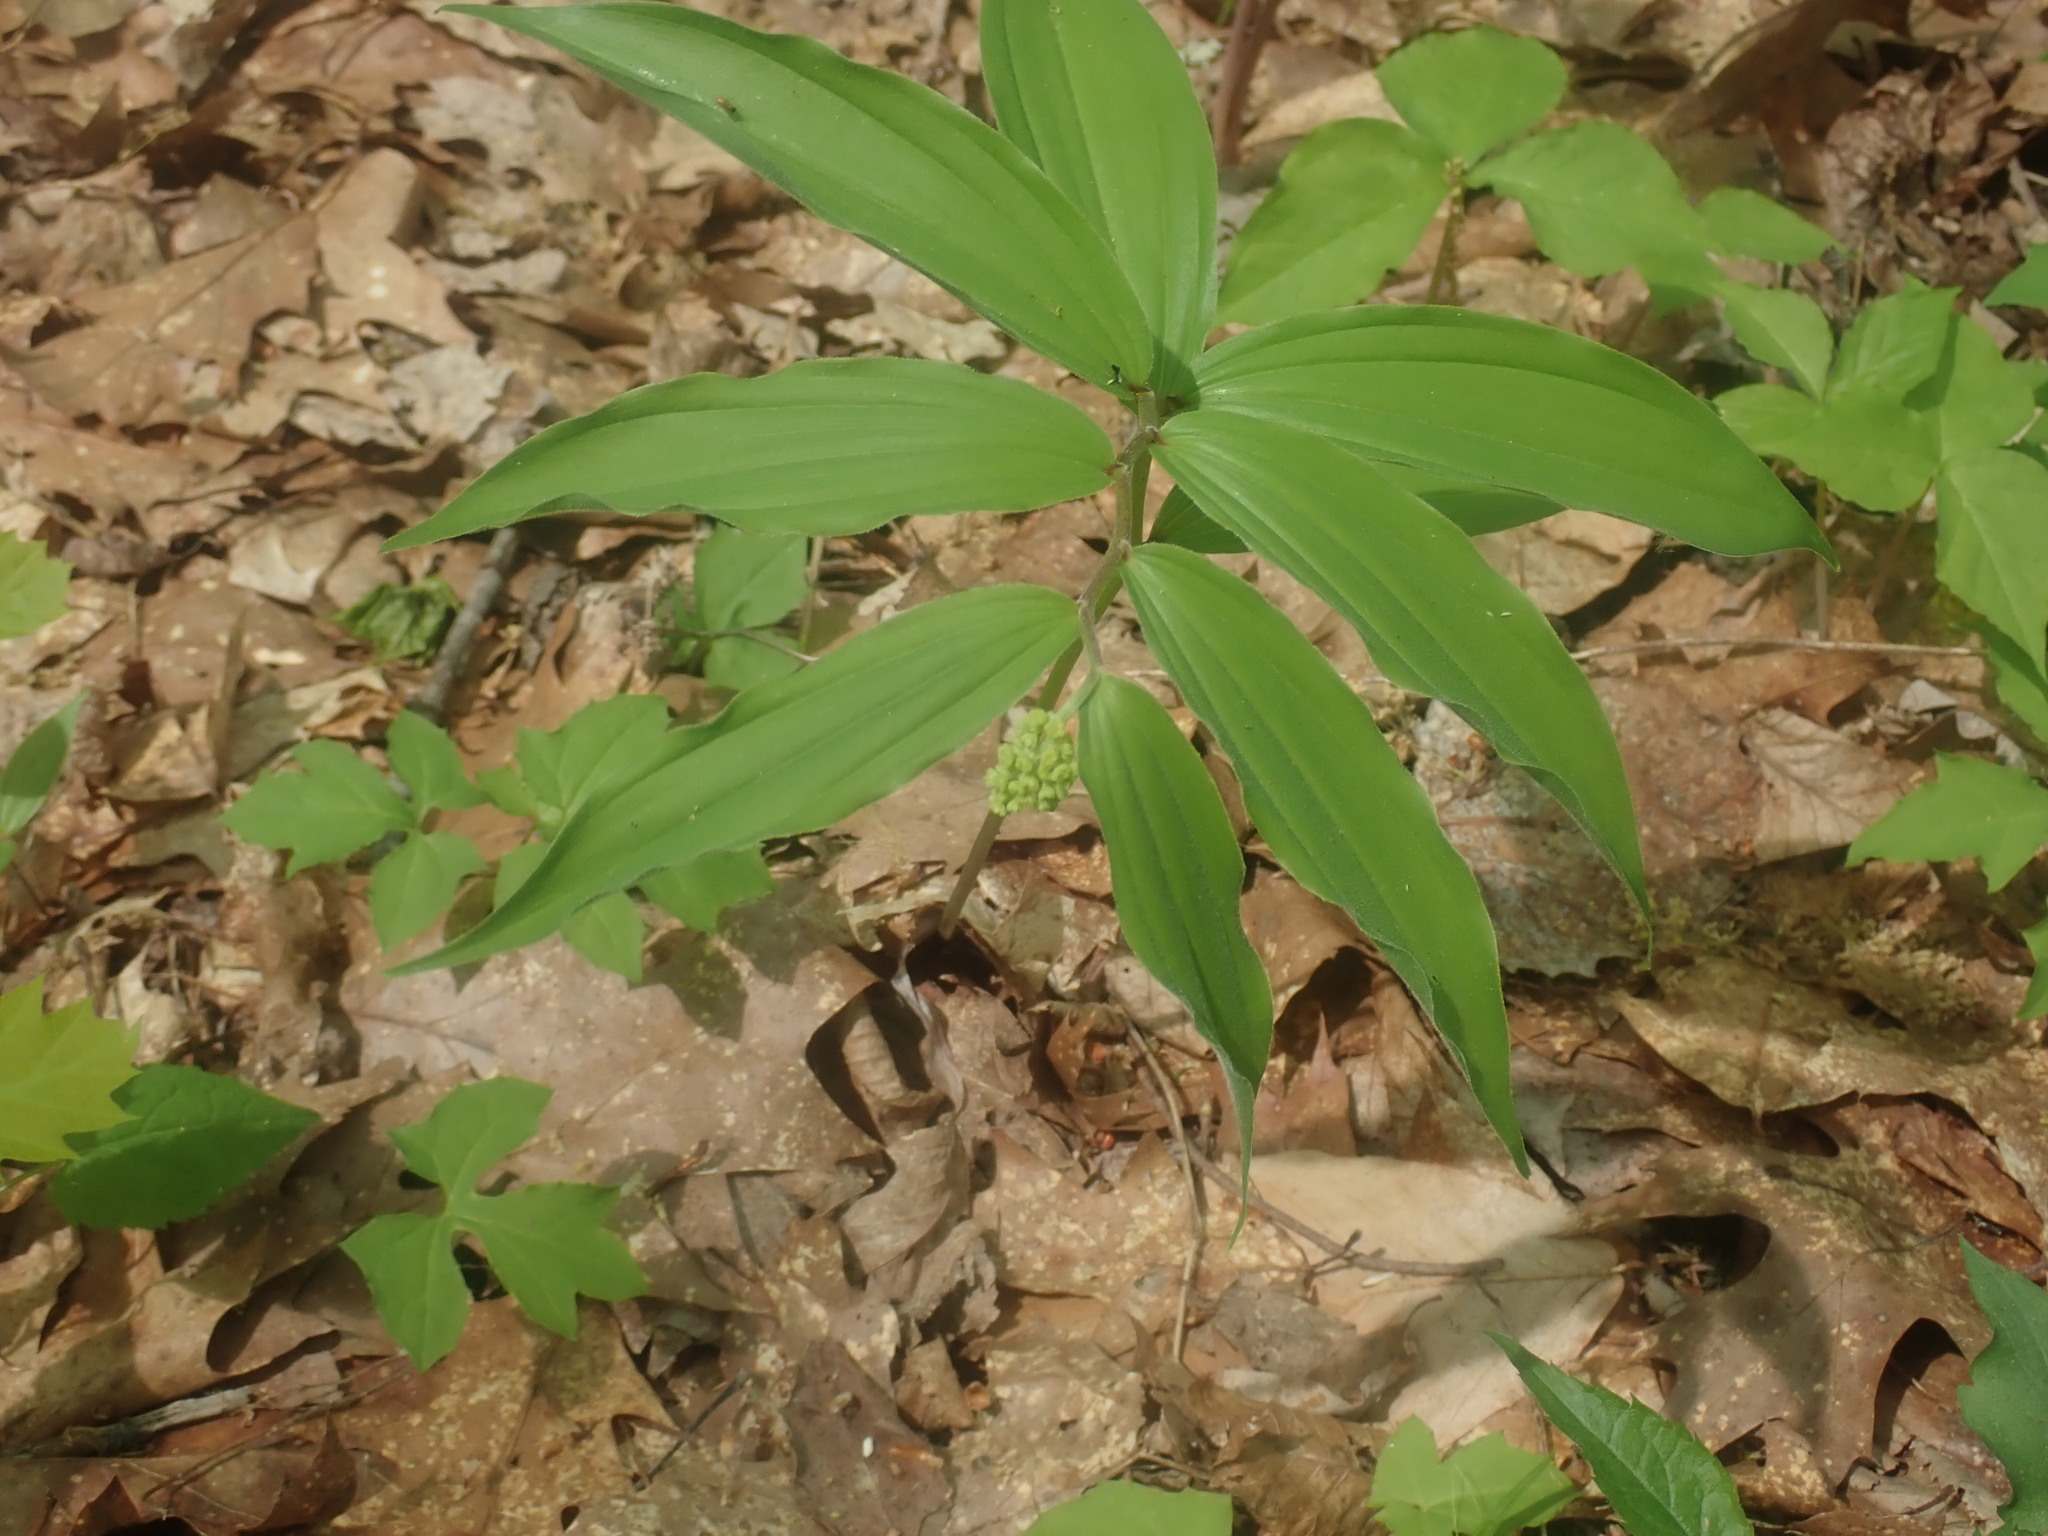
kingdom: Plantae
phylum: Tracheophyta
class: Liliopsida
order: Asparagales
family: Asparagaceae
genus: Maianthemum
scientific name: Maianthemum racemosum
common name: False spikenard
